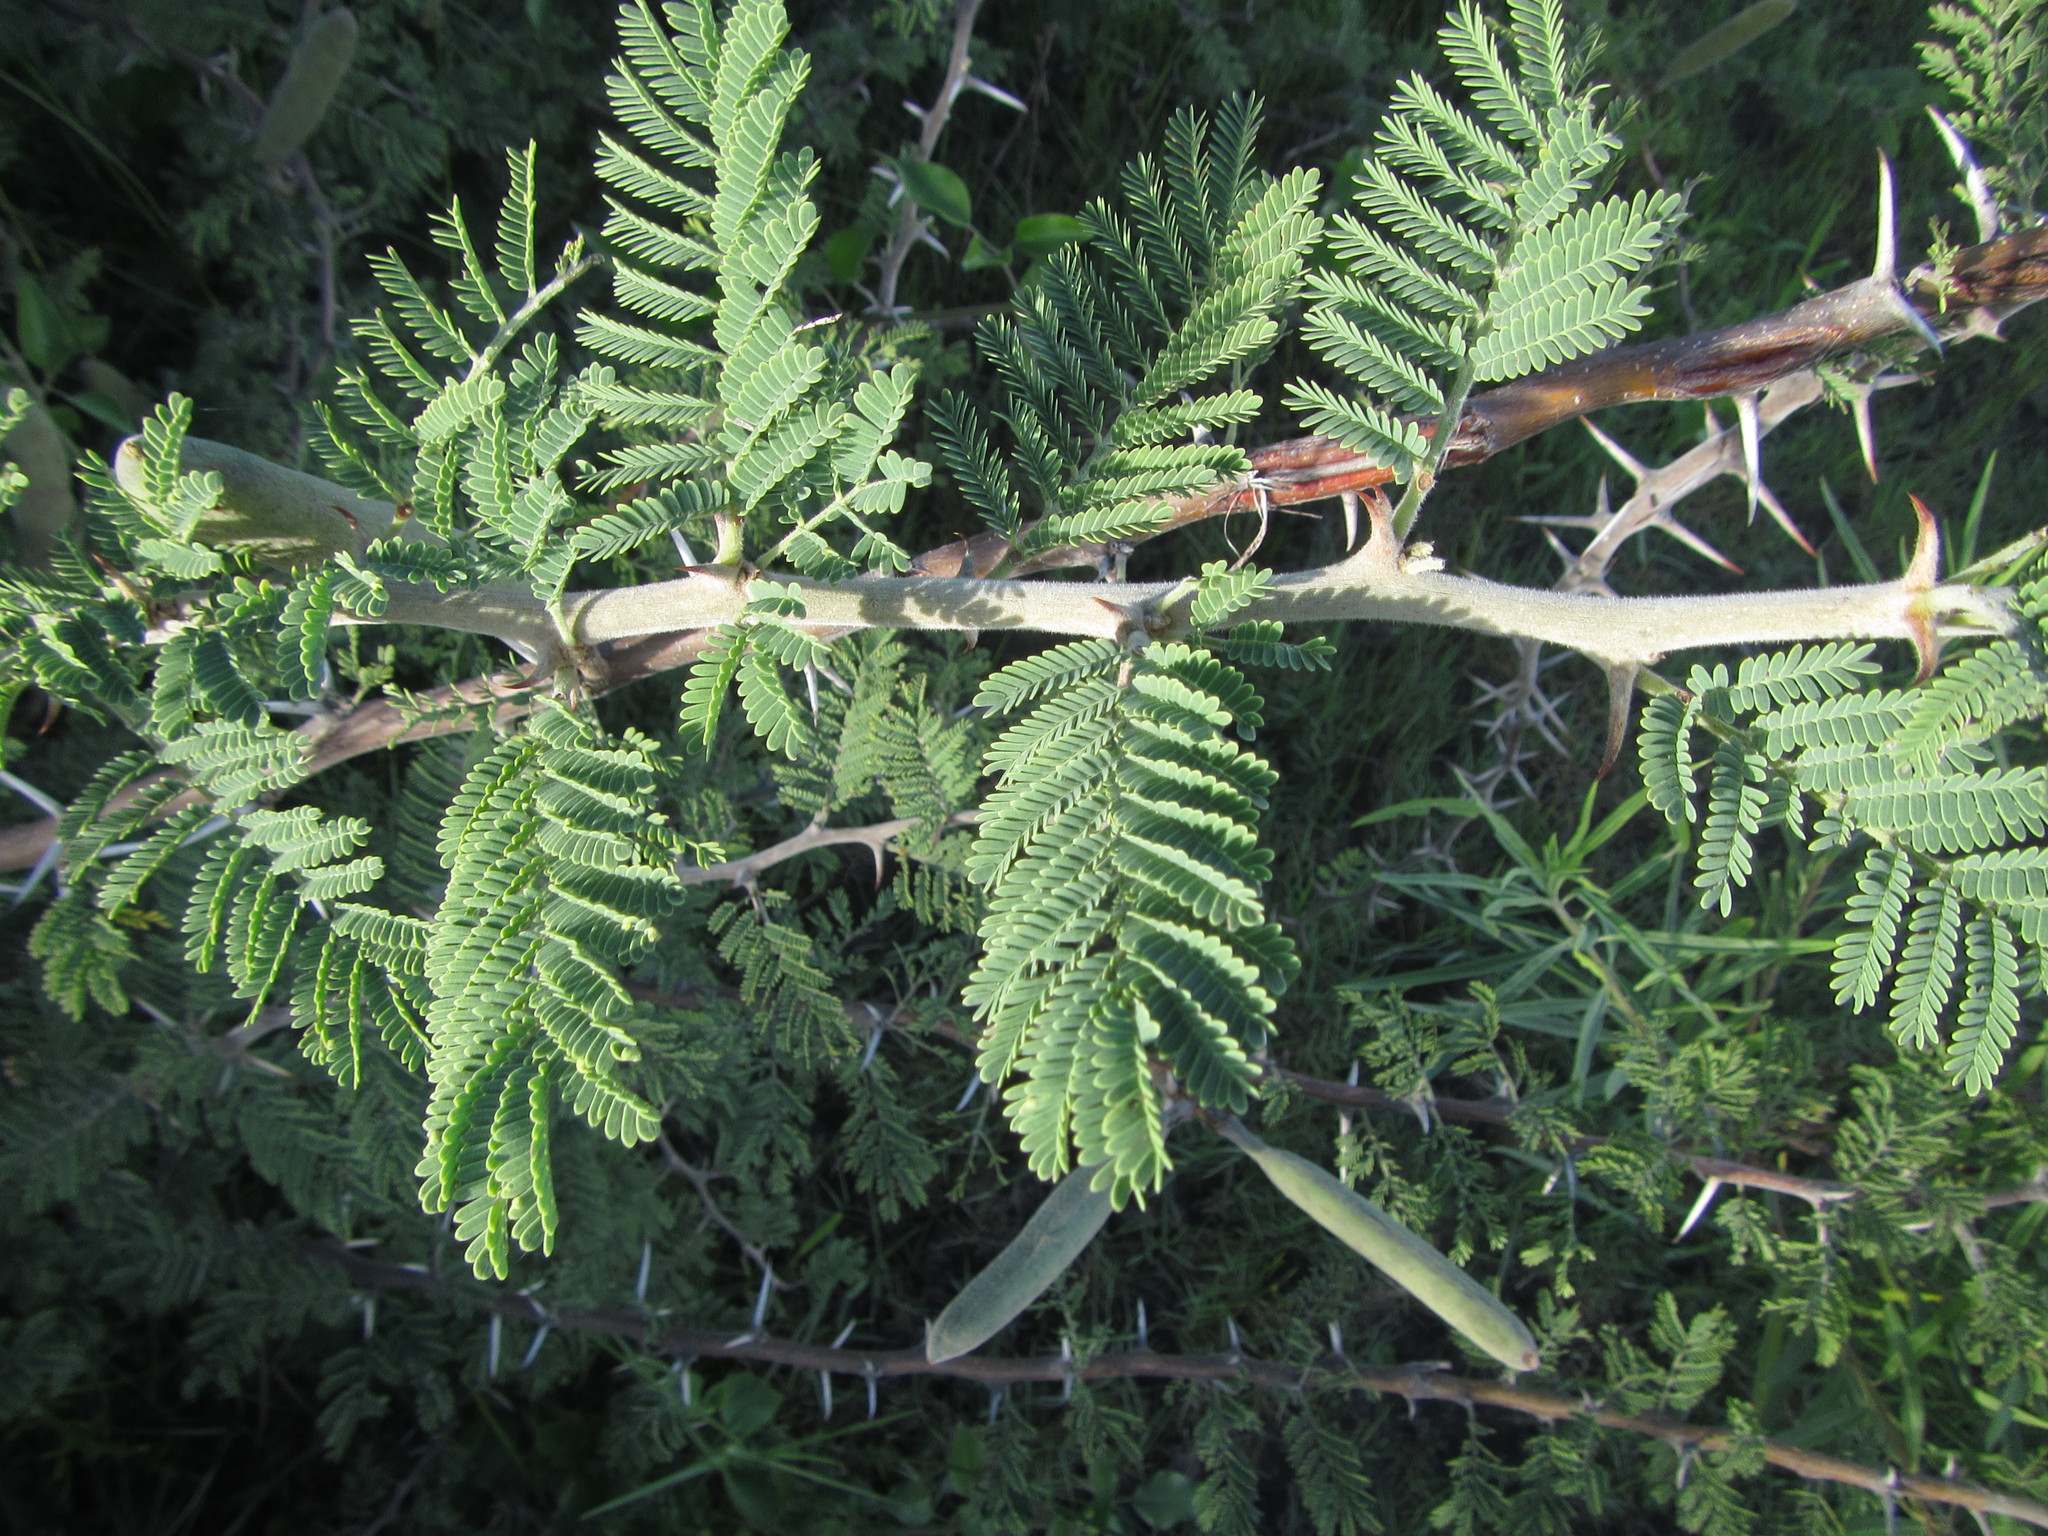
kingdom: Plantae
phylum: Tracheophyta
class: Magnoliopsida
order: Fabales
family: Fabaceae
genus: Vachellia
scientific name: Vachellia hebeclada
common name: Candle thorn
